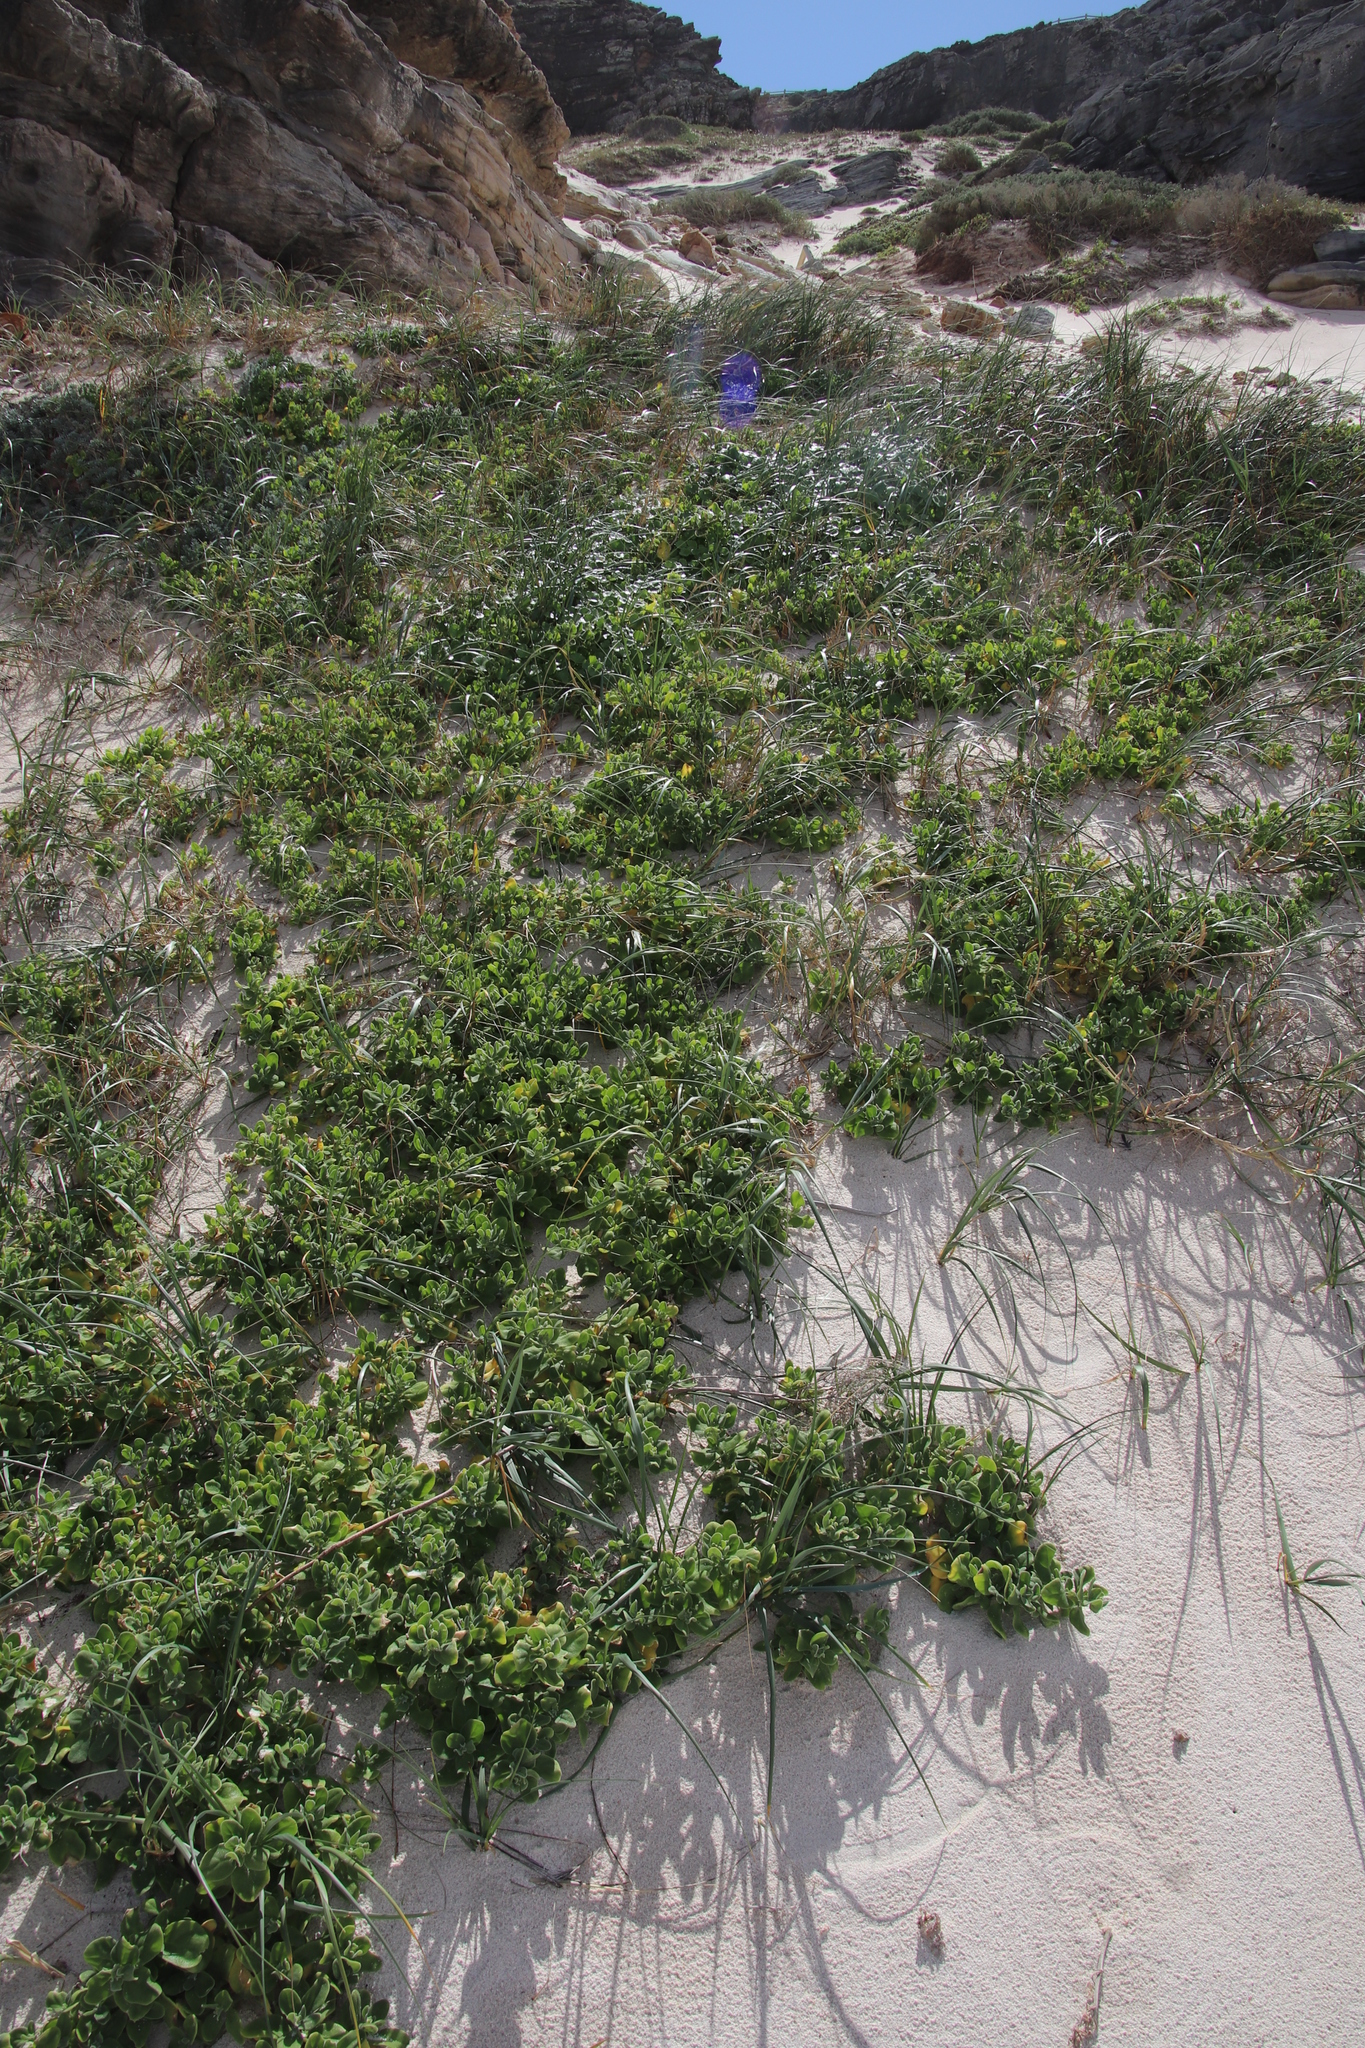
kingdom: Plantae
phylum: Tracheophyta
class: Magnoliopsida
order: Caryophyllales
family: Aizoaceae
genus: Tetragonia
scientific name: Tetragonia decumbens
